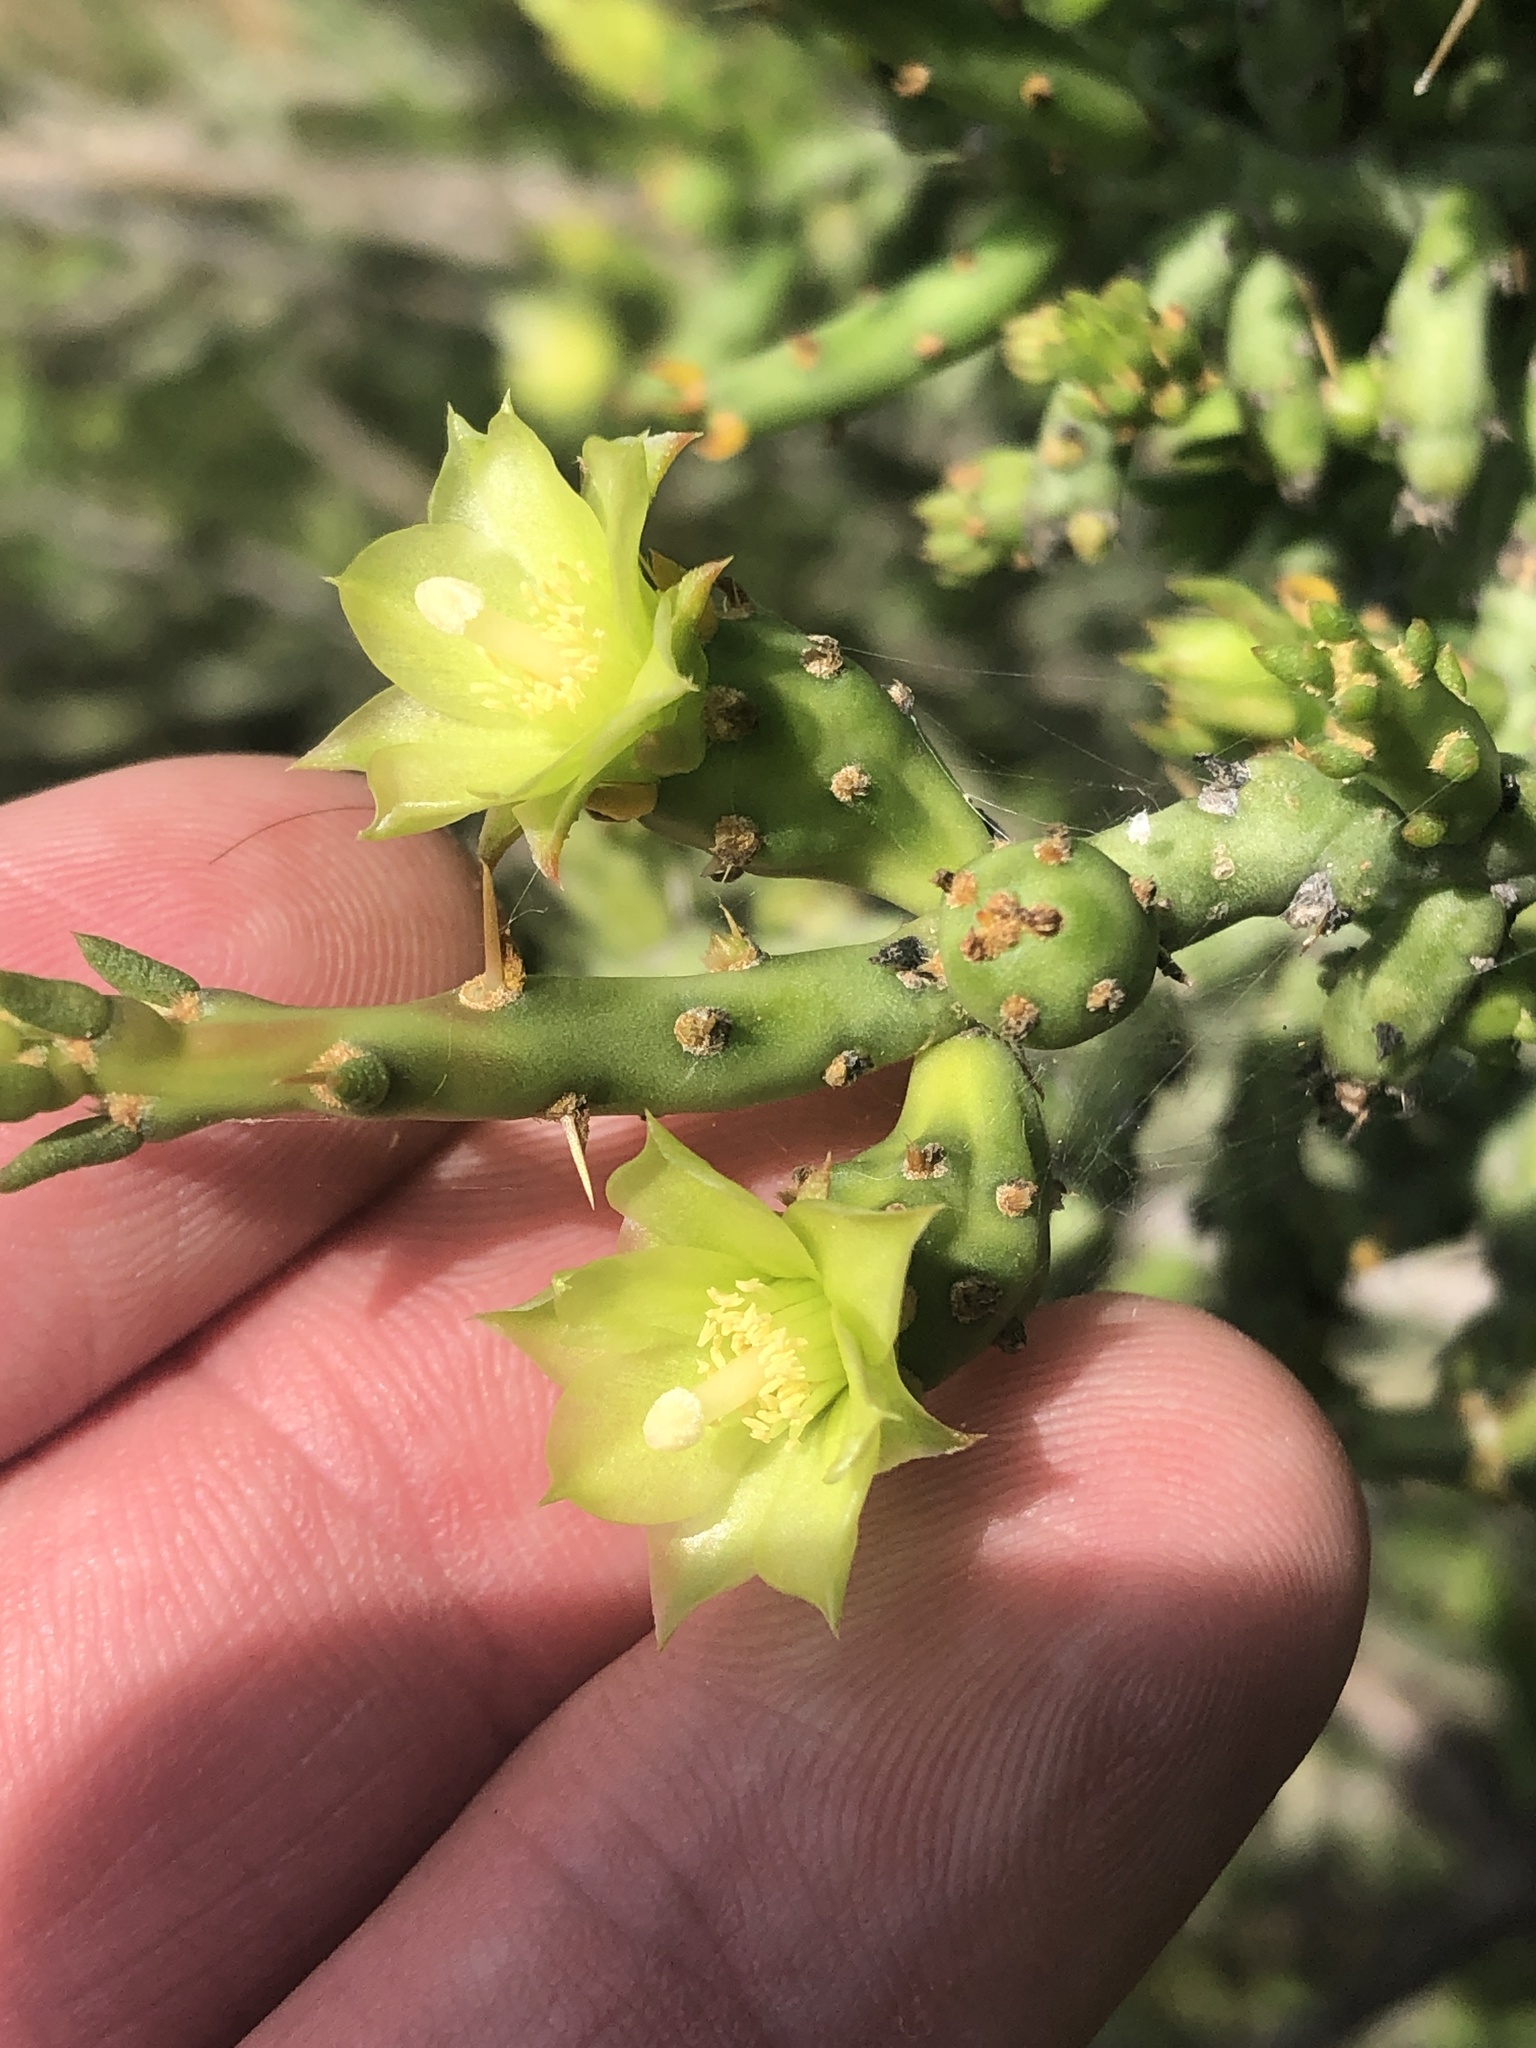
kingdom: Plantae
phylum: Tracheophyta
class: Magnoliopsida
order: Caryophyllales
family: Cactaceae
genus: Cylindropuntia
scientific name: Cylindropuntia leptocaulis
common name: Christmas cactus
